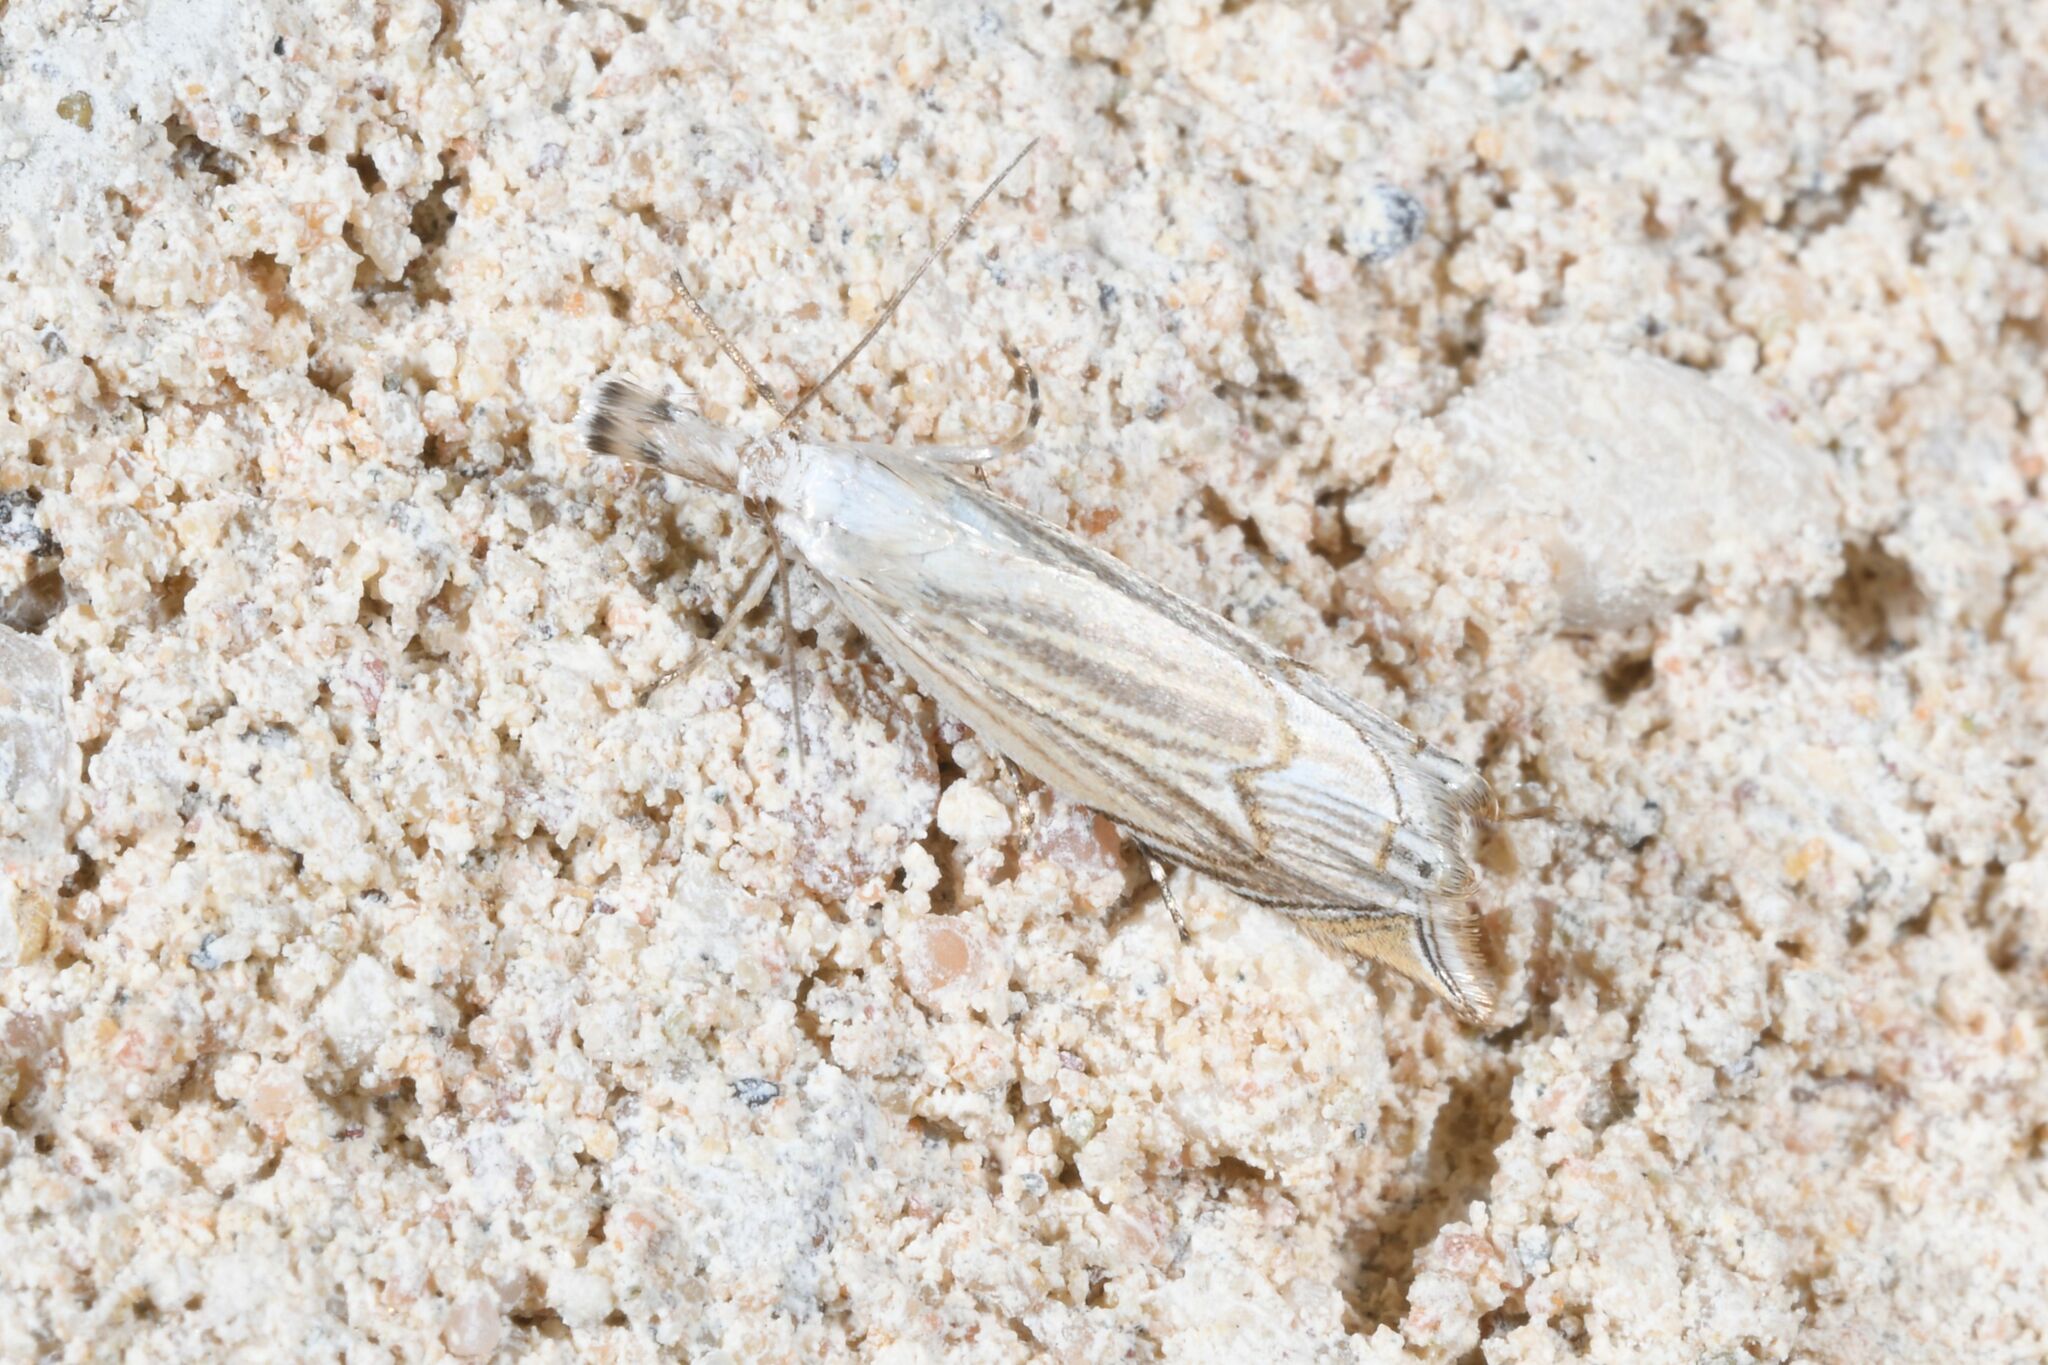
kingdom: Animalia
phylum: Arthropoda
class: Insecta
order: Lepidoptera
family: Crambidae
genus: Metacrambus
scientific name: Metacrambus carectellus
